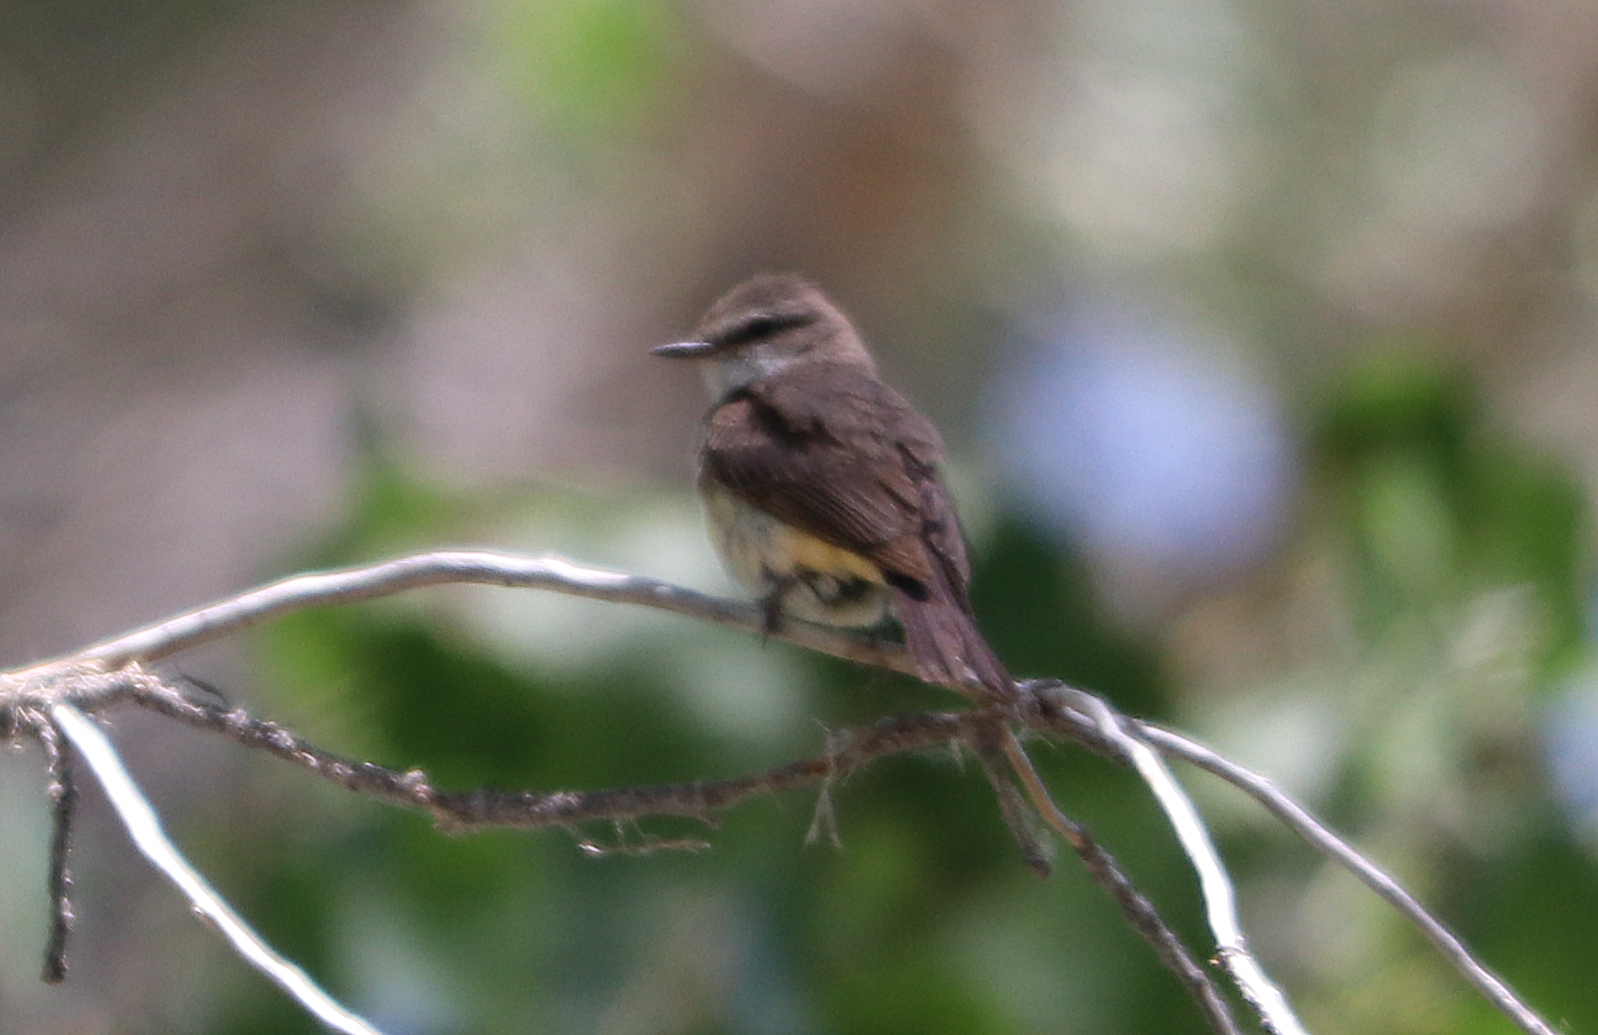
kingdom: Animalia
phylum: Chordata
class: Aves
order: Passeriformes
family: Tyrannidae
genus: Pyrocephalus
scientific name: Pyrocephalus rubinus
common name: Vermilion flycatcher
